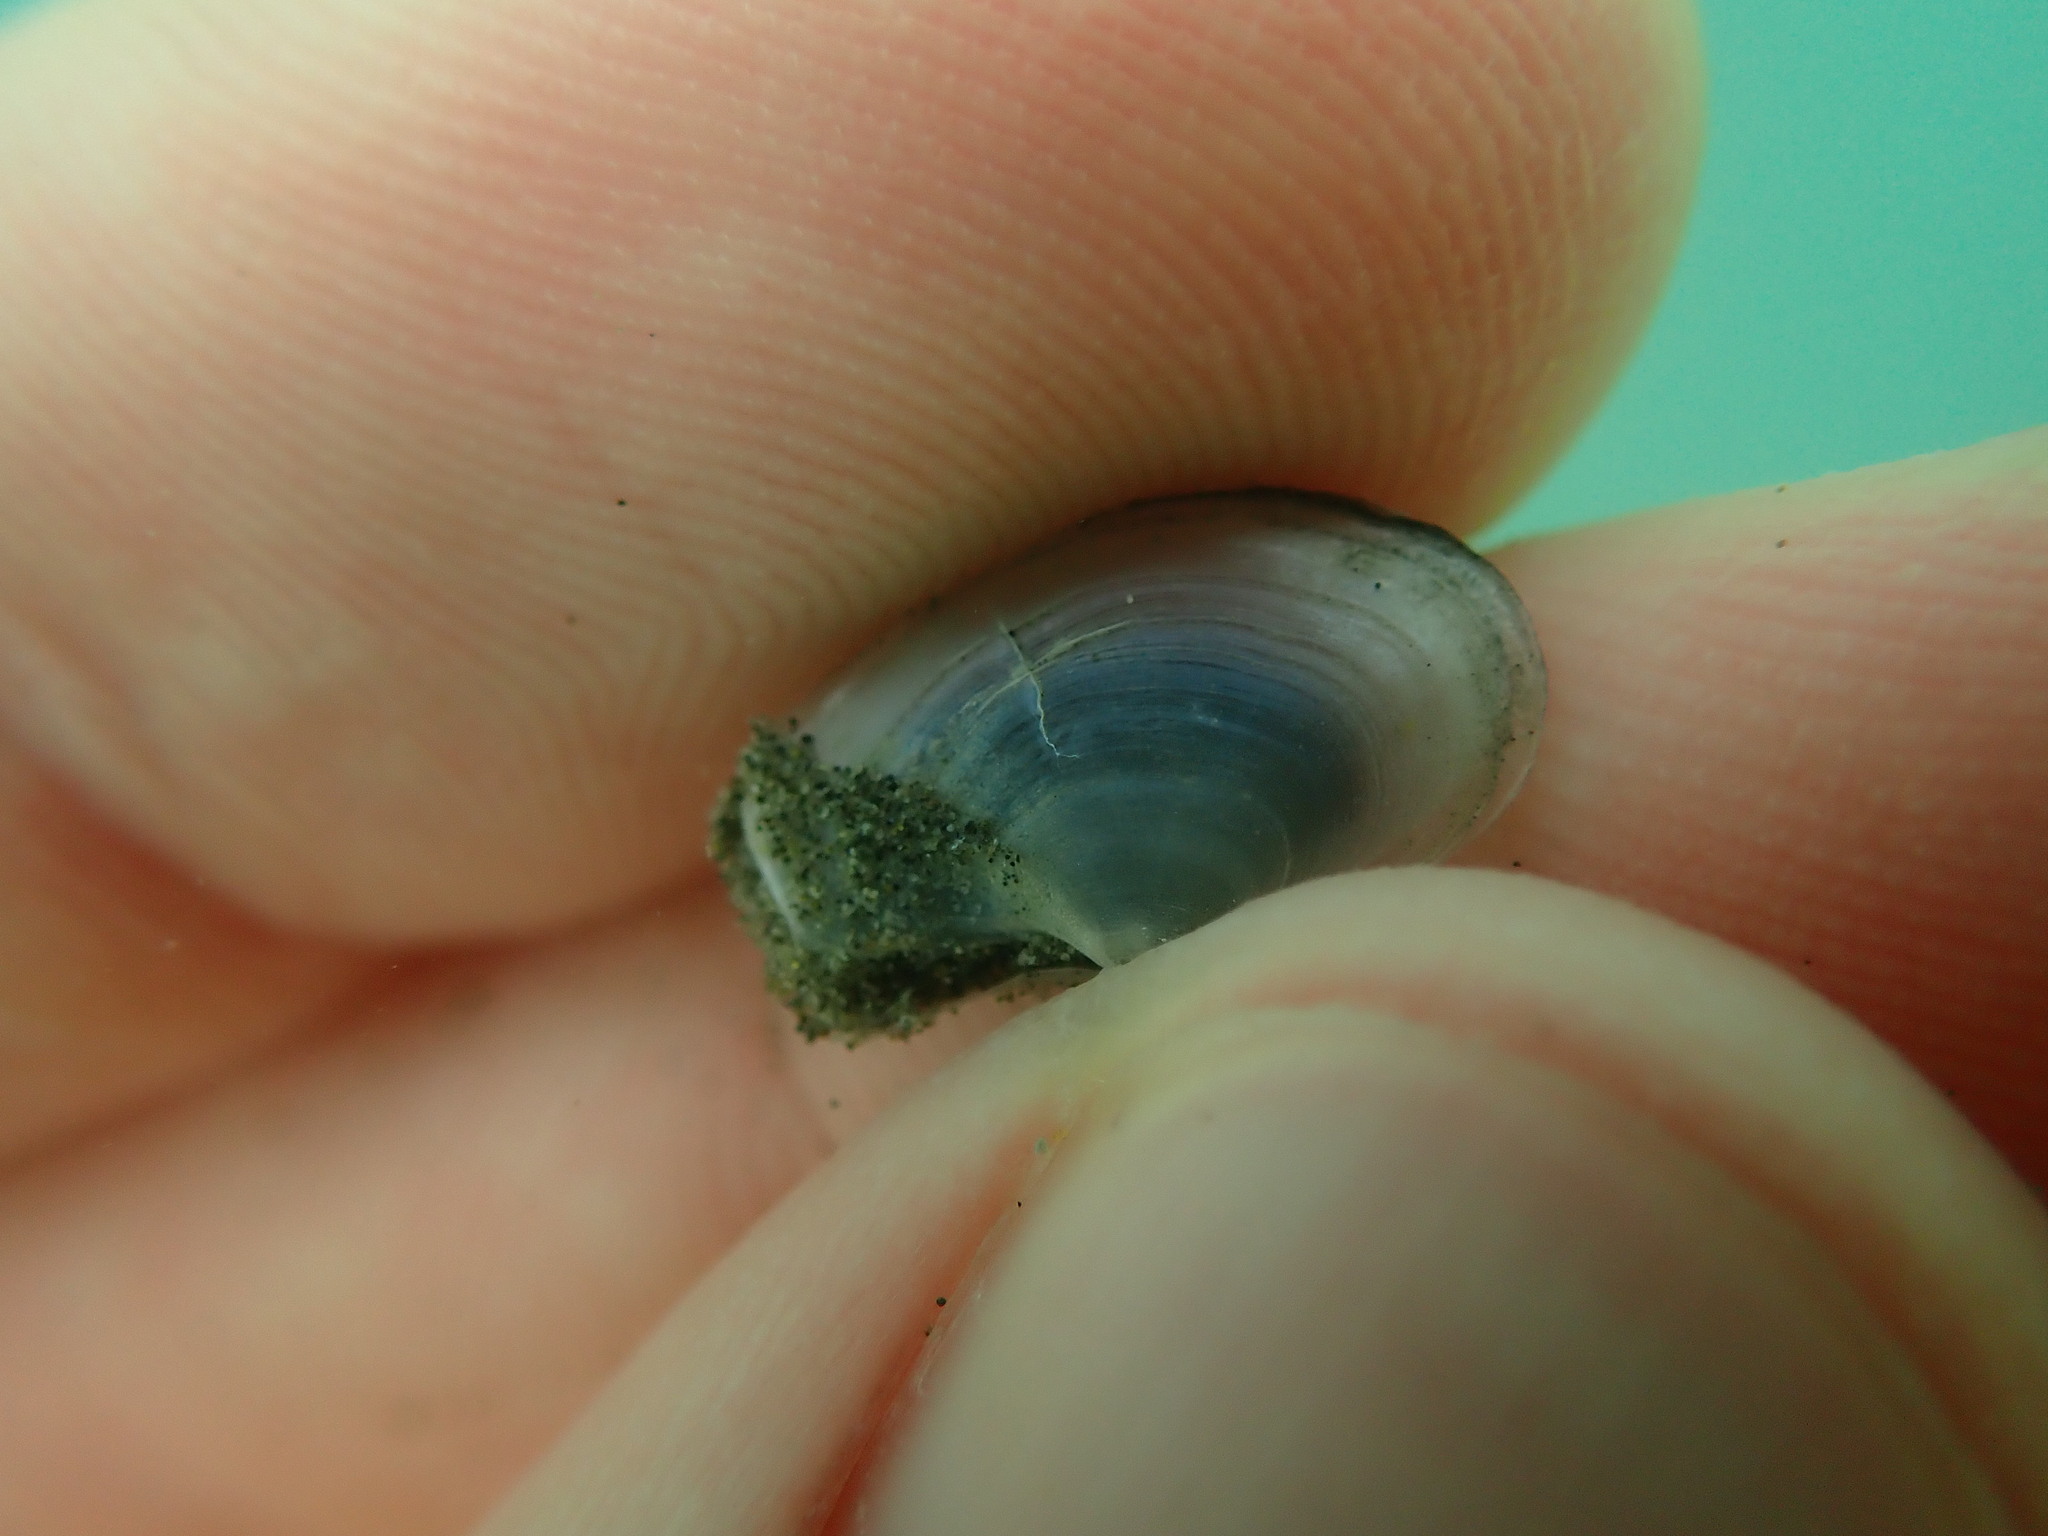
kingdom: Animalia
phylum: Mollusca
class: Bivalvia
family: Periplomatidae
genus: Offadesma
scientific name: Offadesma angasi
